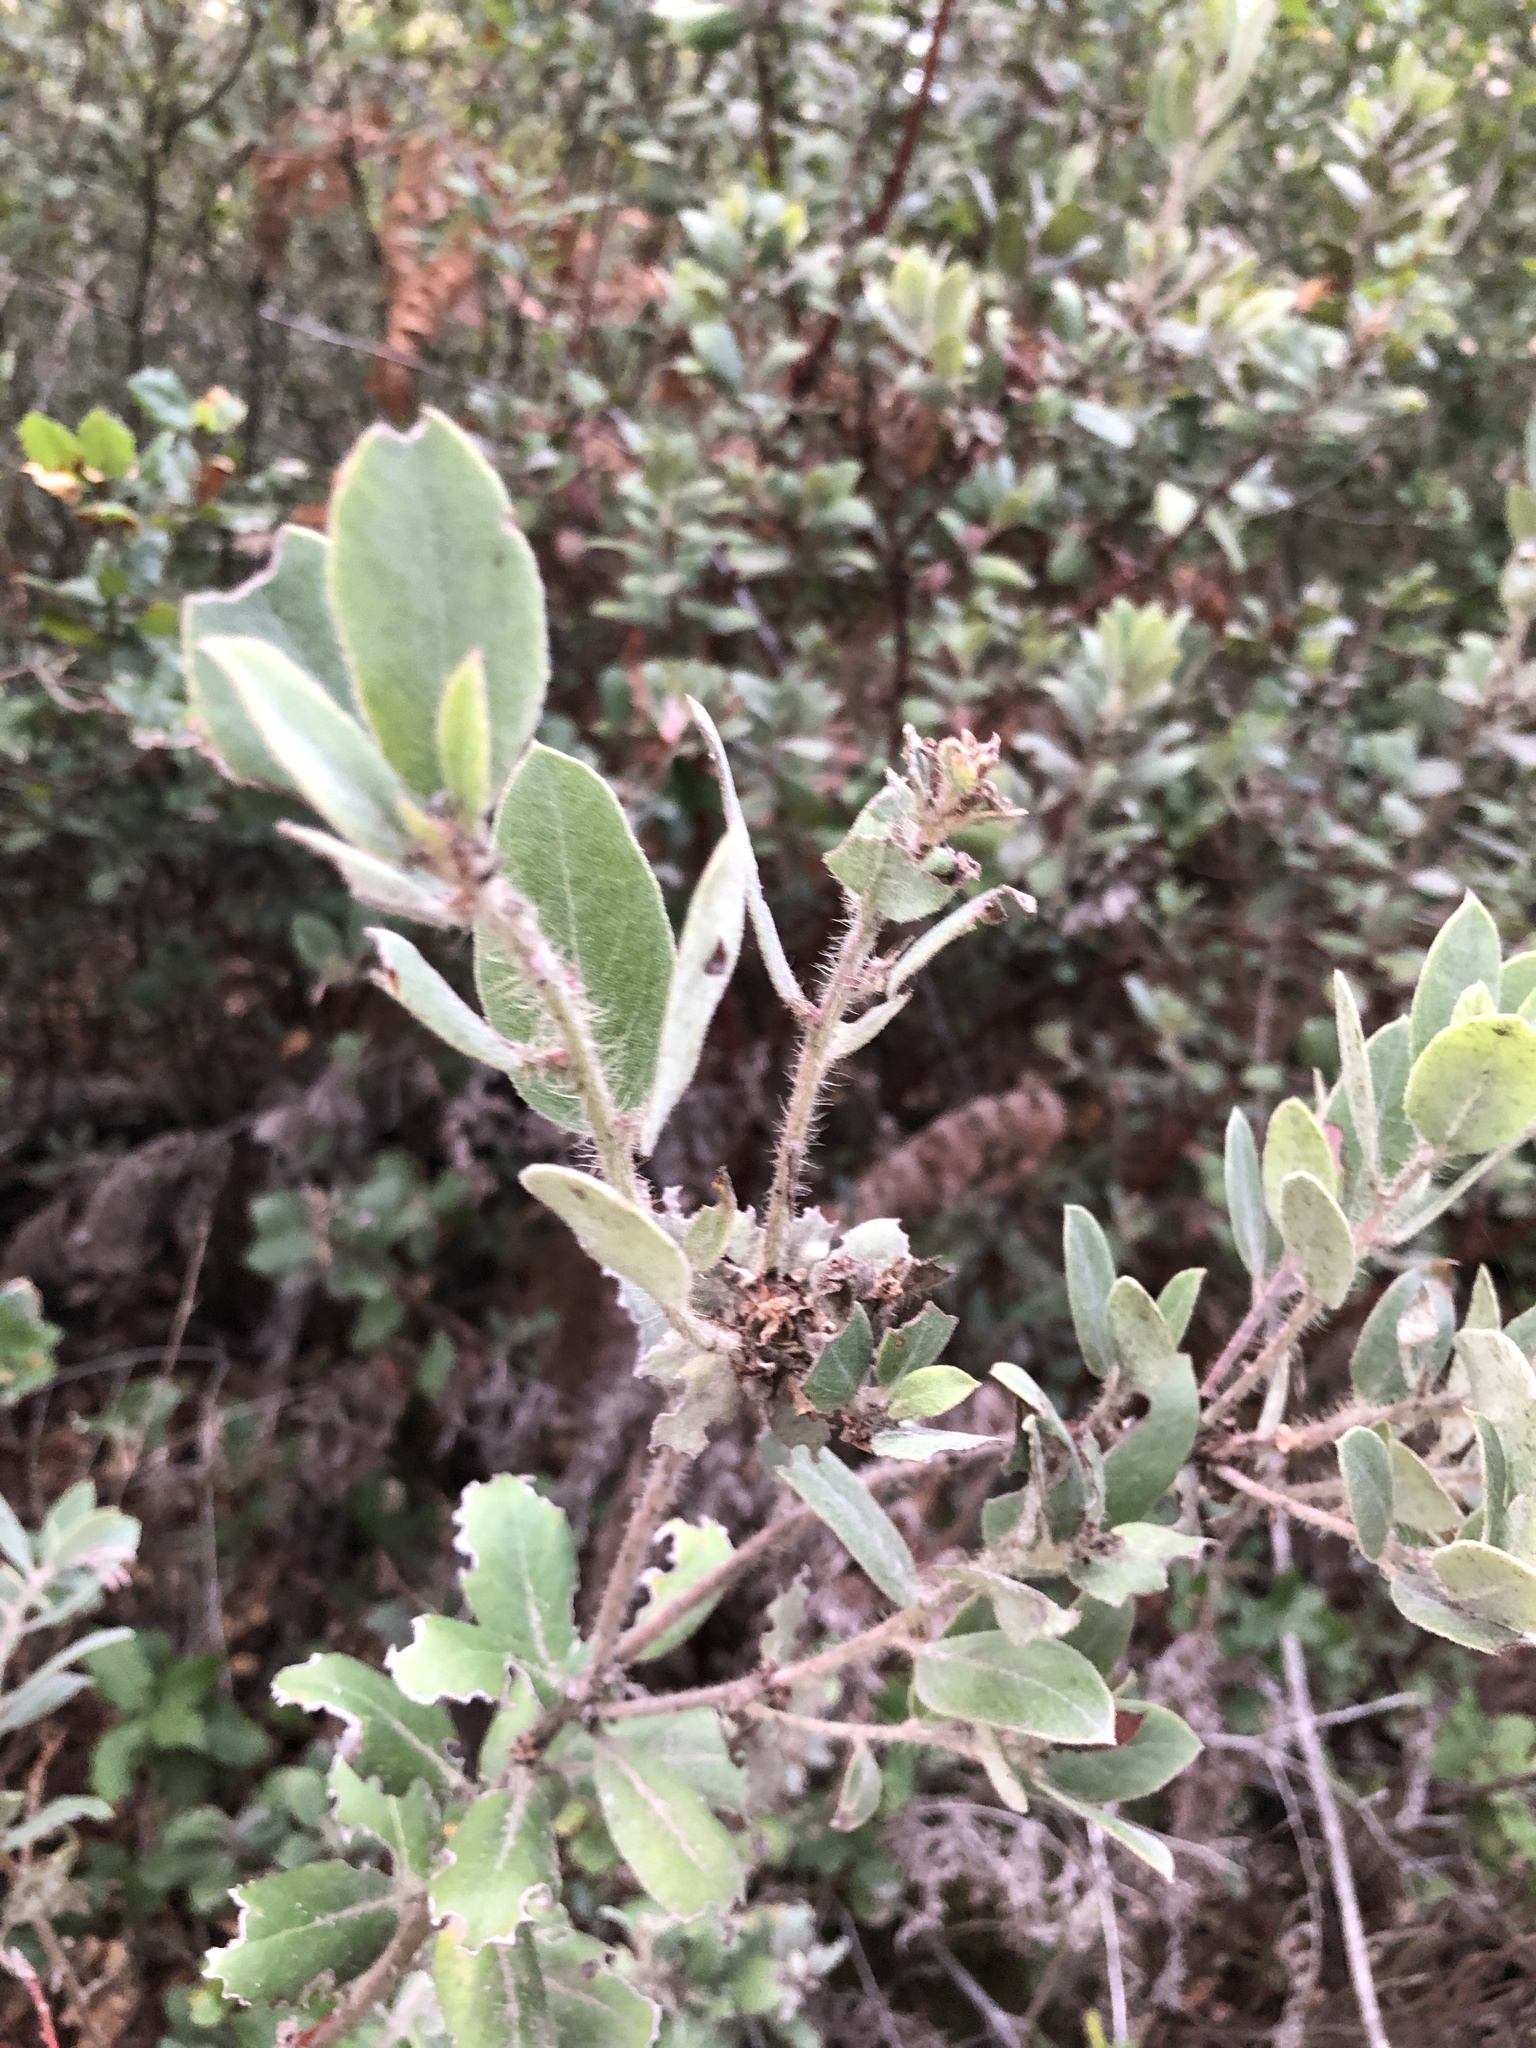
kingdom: Plantae
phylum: Tracheophyta
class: Magnoliopsida
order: Ericales
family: Ericaceae
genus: Arctostaphylos
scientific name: Arctostaphylos crustacea
